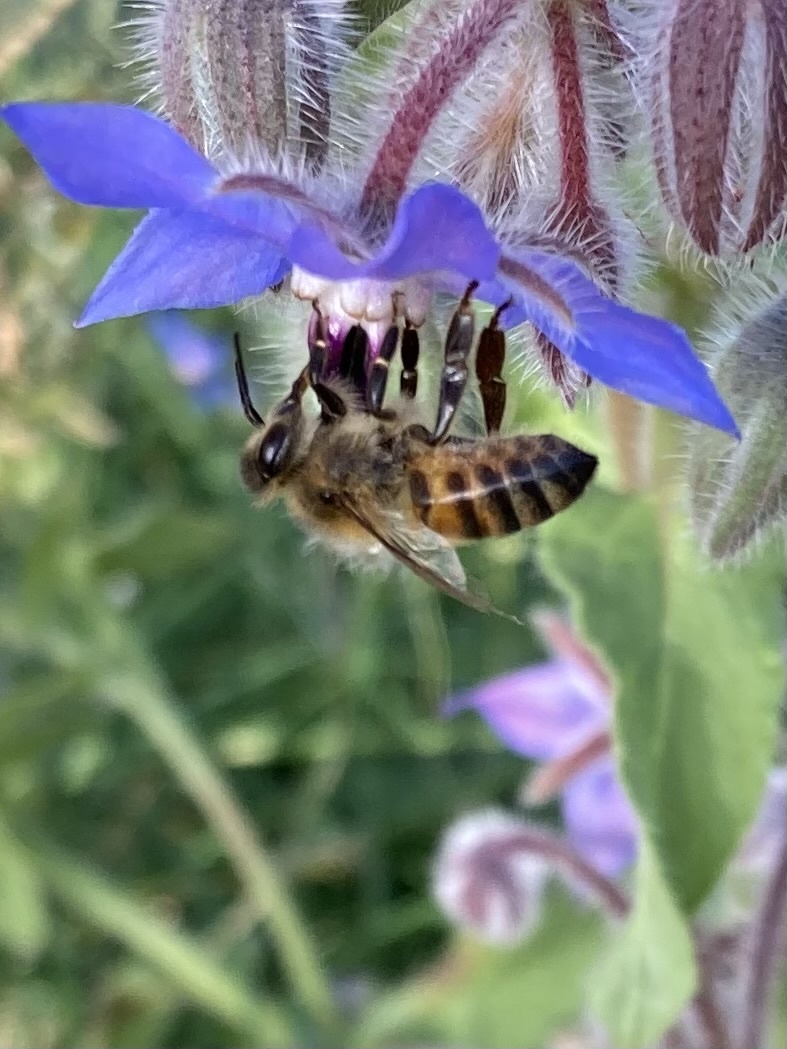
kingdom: Animalia
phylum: Arthropoda
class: Insecta
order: Hymenoptera
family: Apidae
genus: Apis
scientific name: Apis mellifera
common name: Honey bee
